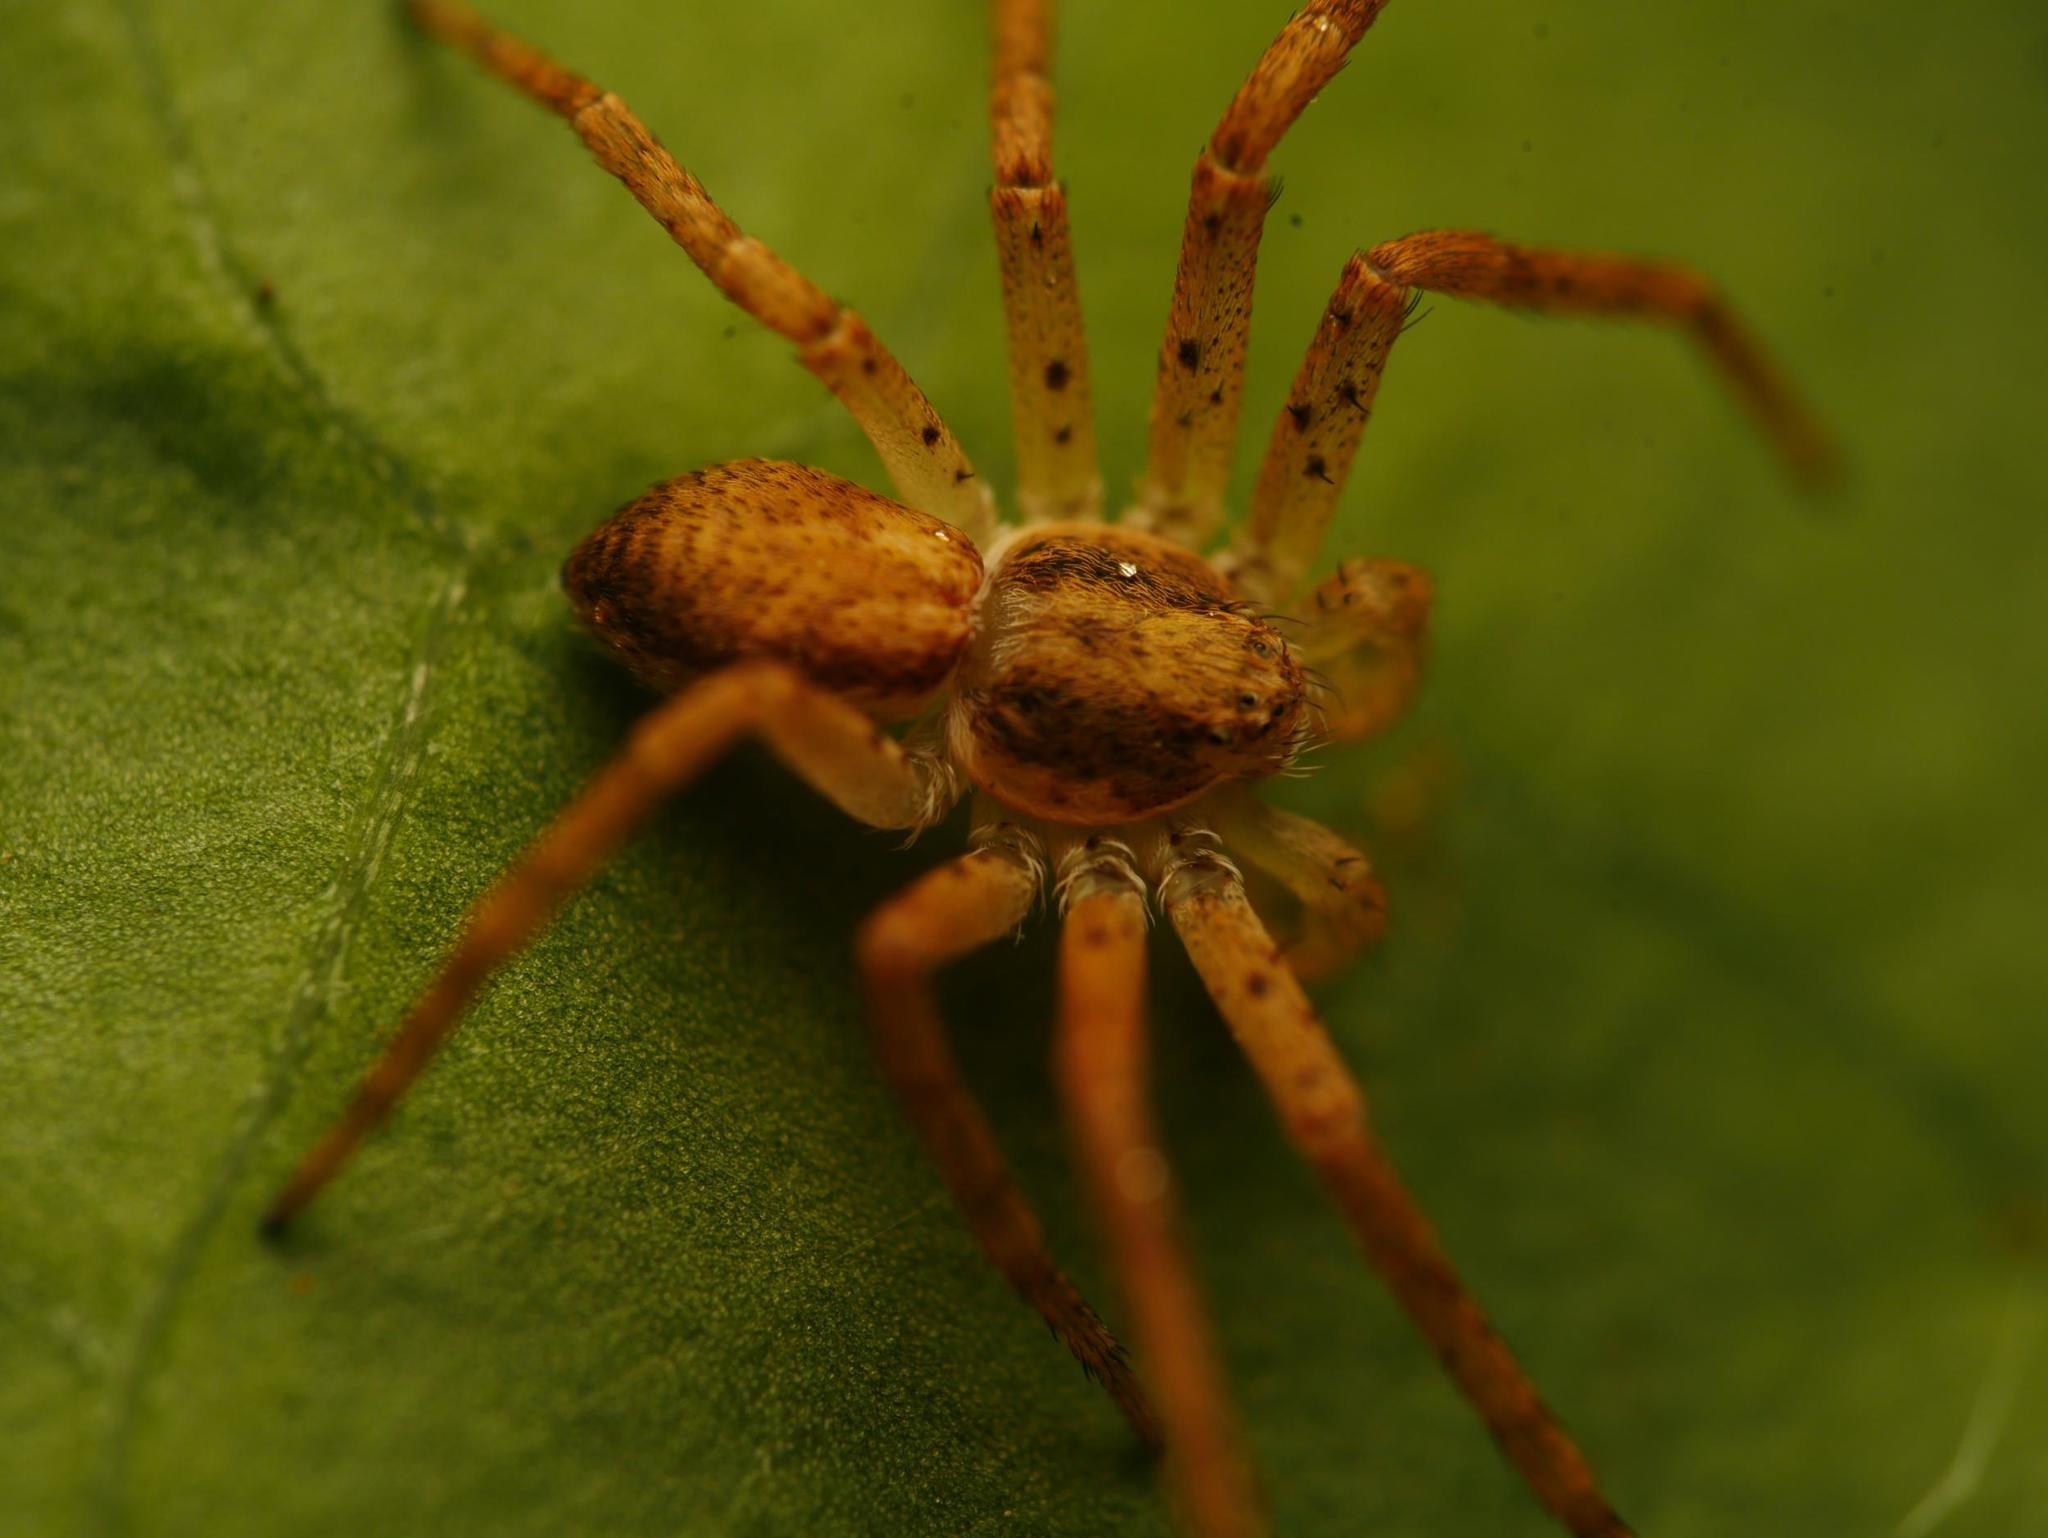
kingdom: Animalia
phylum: Arthropoda
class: Arachnida
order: Araneae
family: Philodromidae
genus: Philodromus
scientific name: Philodromus dispar
